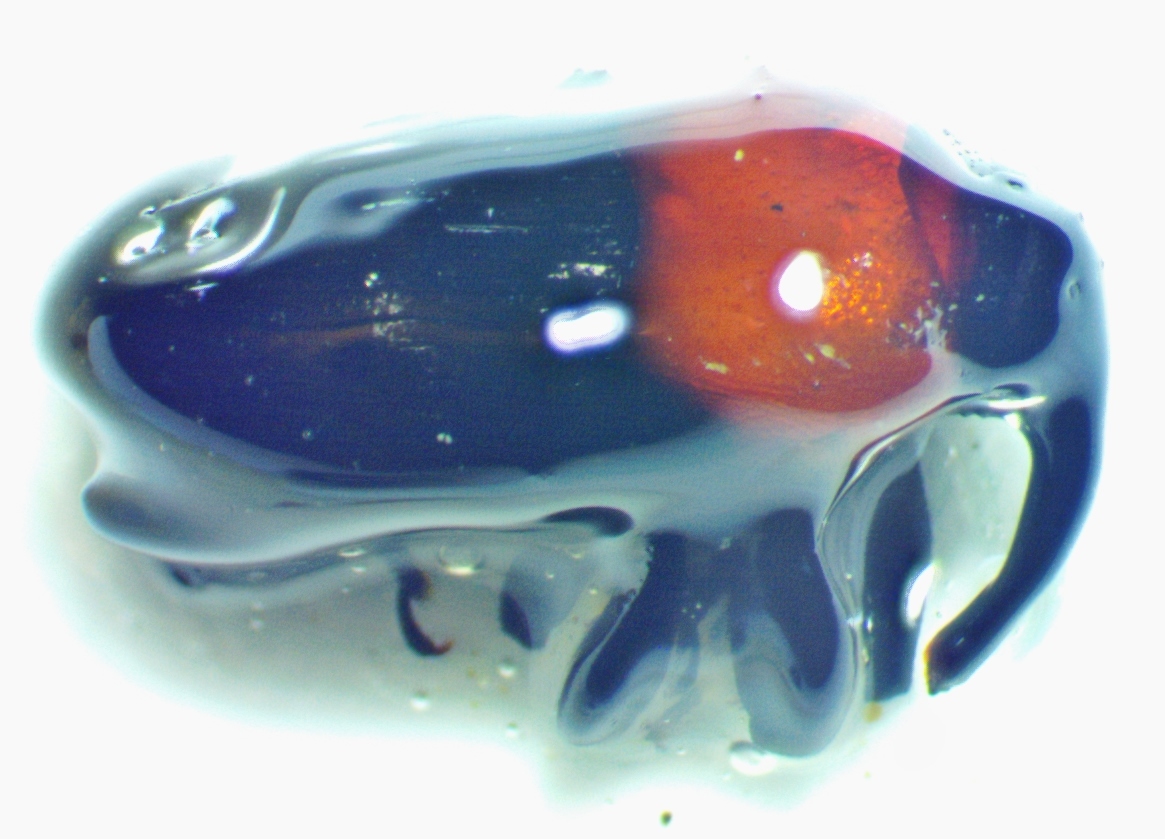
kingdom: Animalia
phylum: Arthropoda
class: Insecta
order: Coleoptera
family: Curculionidae
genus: Madarellus
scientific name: Madarellus undulatus
